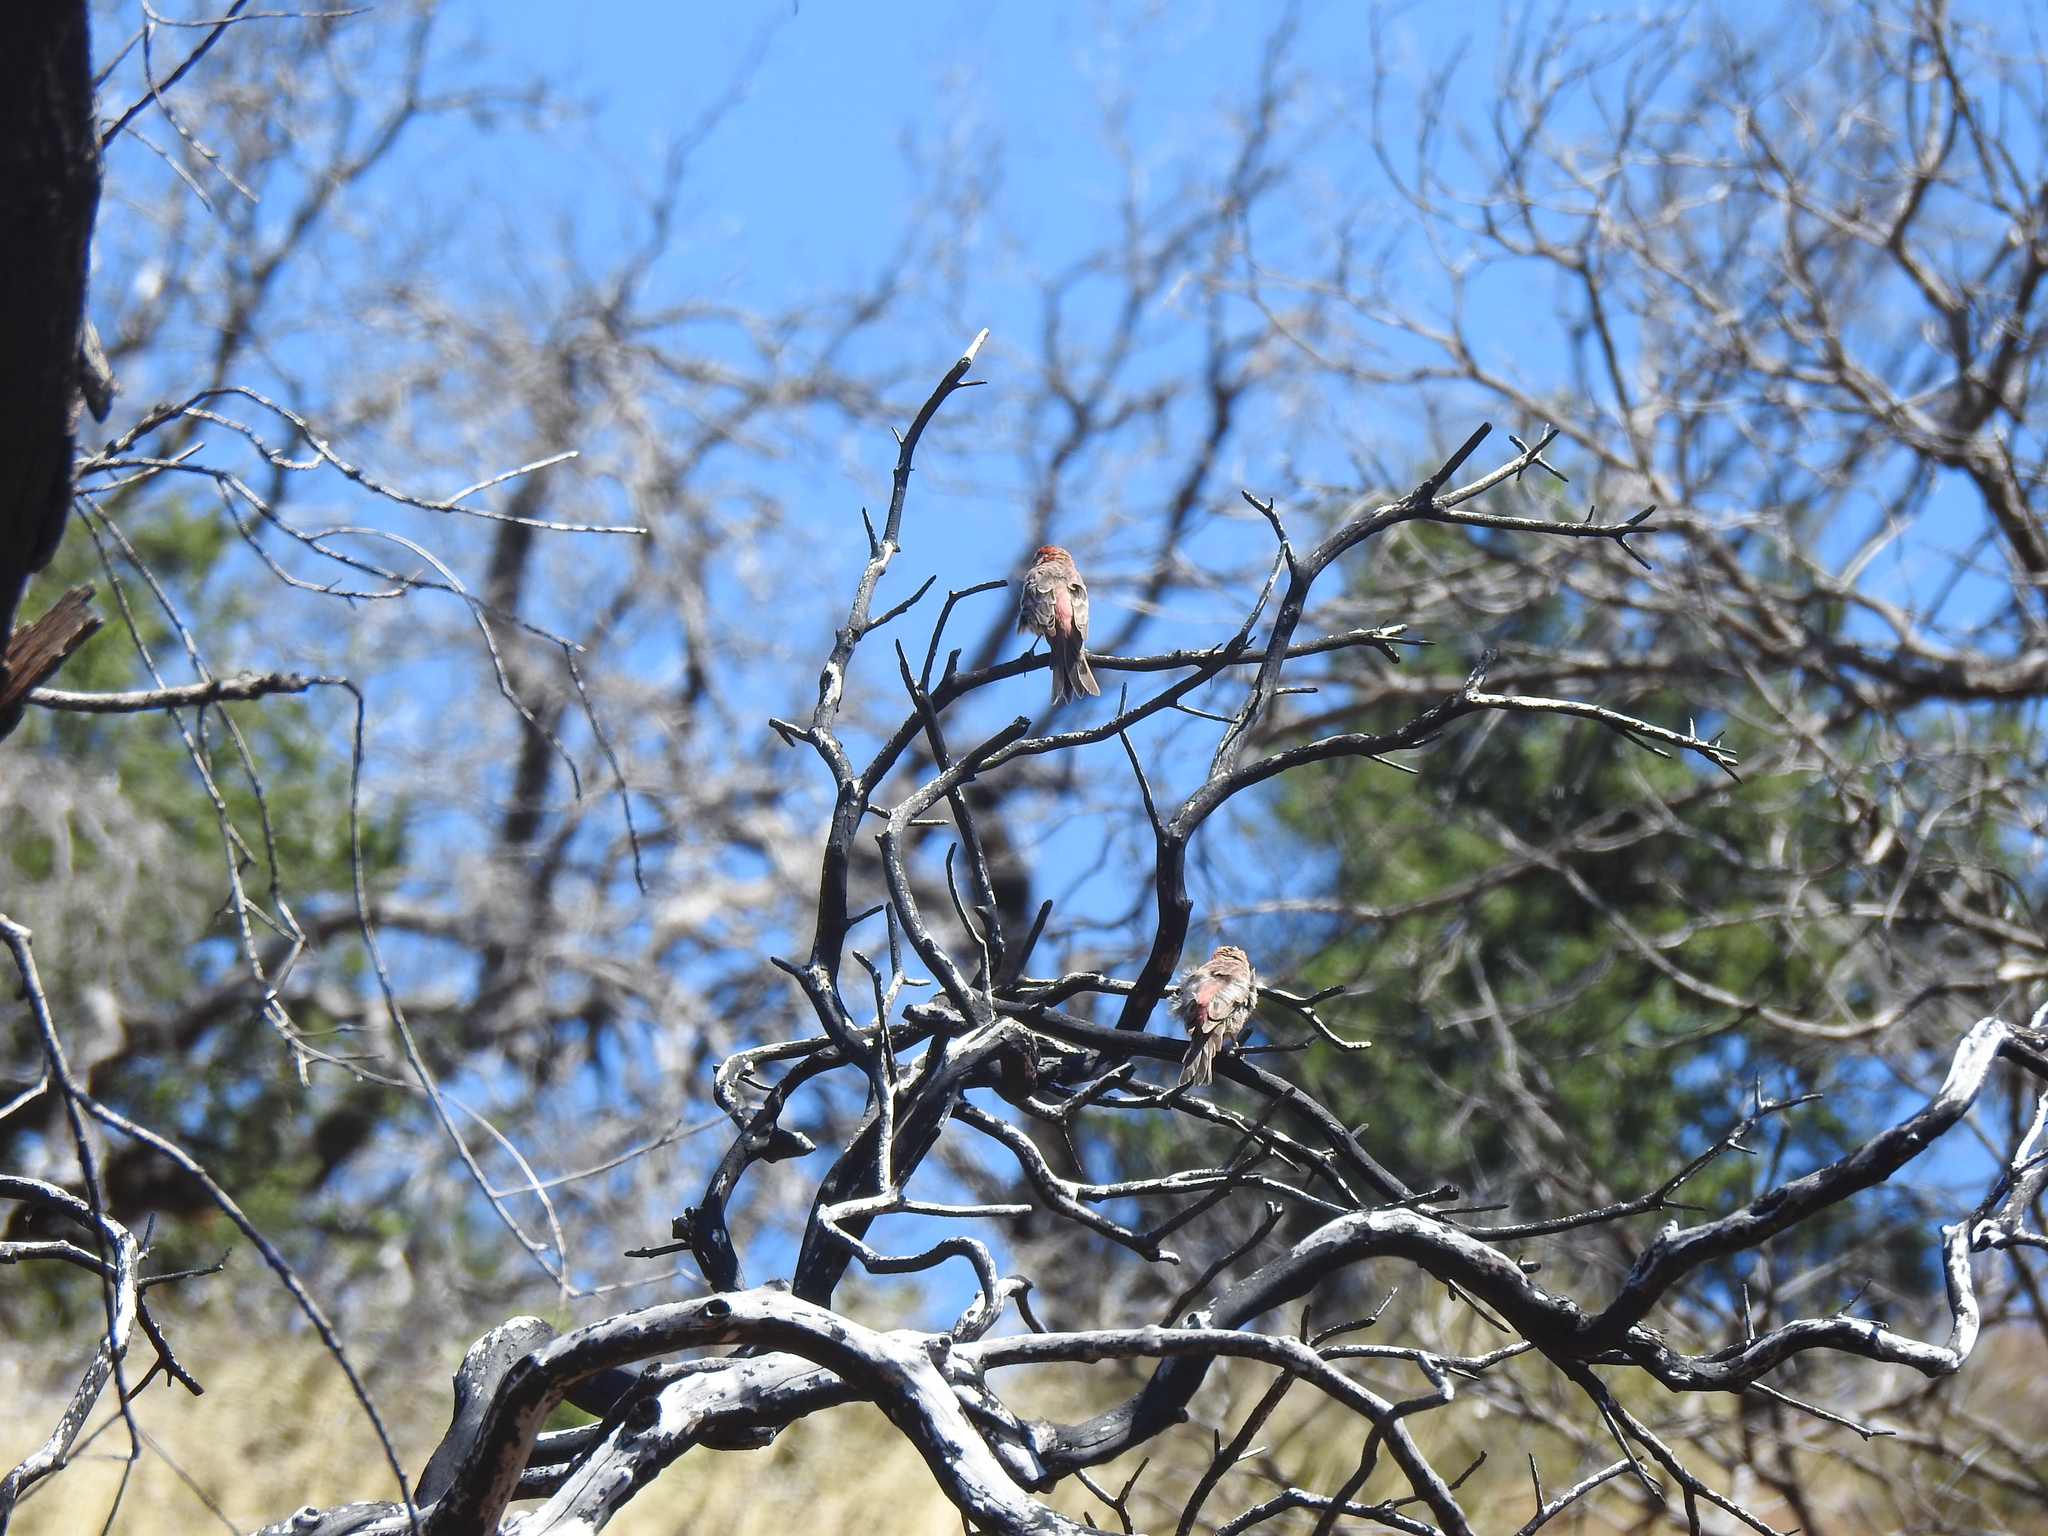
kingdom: Animalia
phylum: Chordata
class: Aves
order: Passeriformes
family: Fringillidae
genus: Haemorhous
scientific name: Haemorhous mexicanus
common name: House finch
